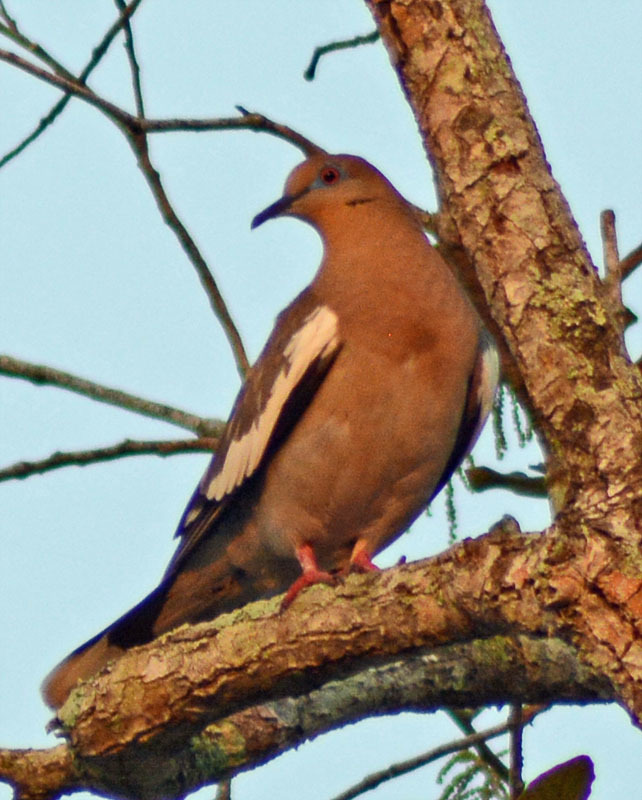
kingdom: Animalia
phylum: Chordata
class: Aves
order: Columbiformes
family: Columbidae
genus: Zenaida
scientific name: Zenaida asiatica
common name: White-winged dove
